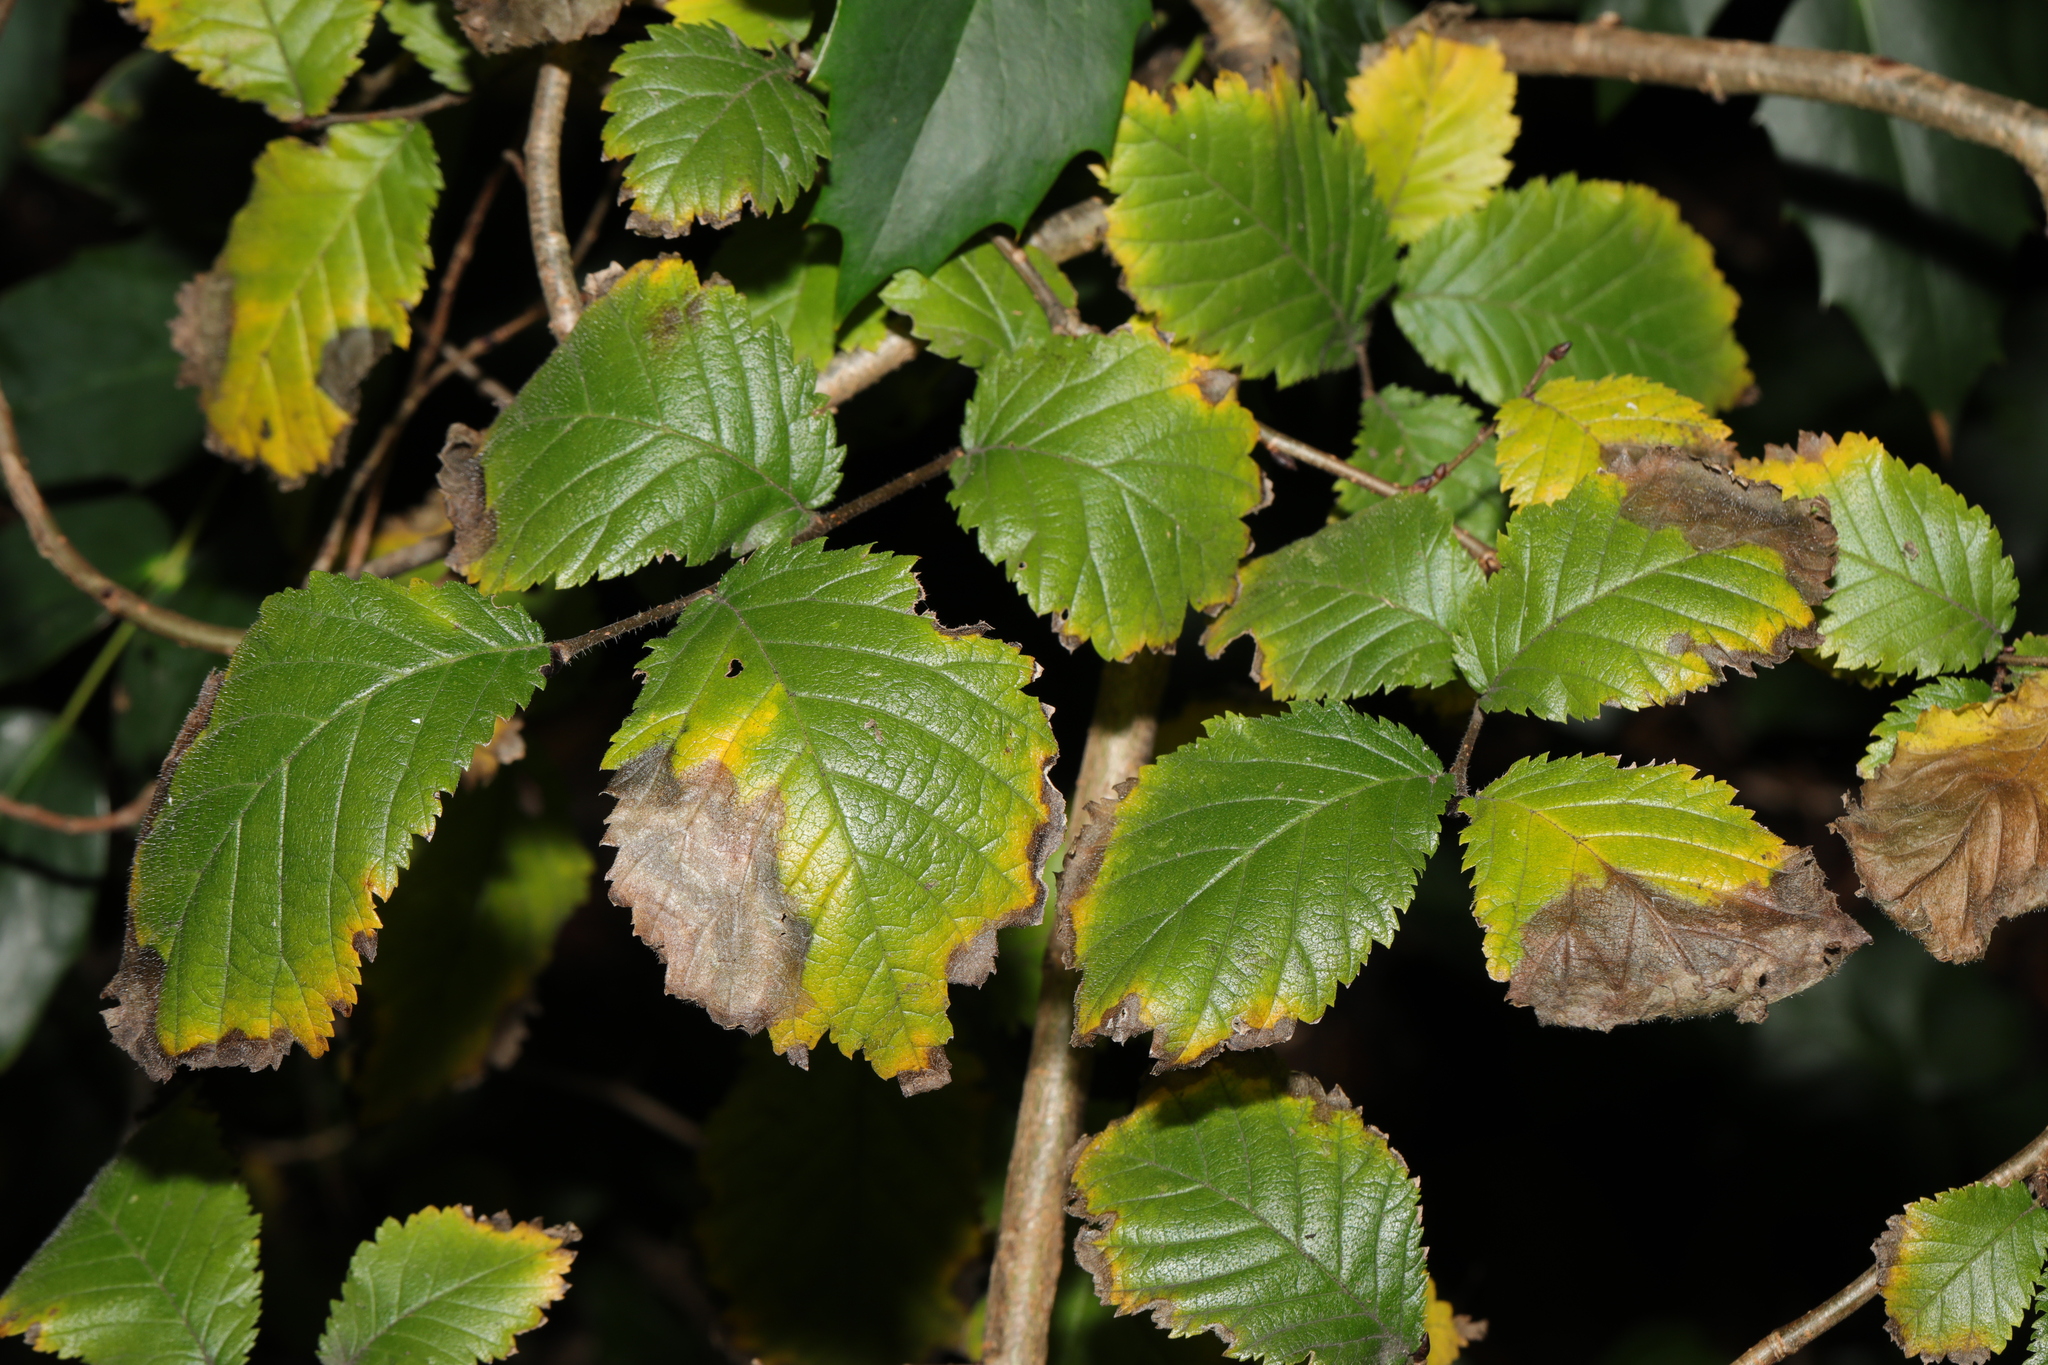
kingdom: Plantae
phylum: Tracheophyta
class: Magnoliopsida
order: Rosales
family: Ulmaceae
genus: Ulmus
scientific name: Ulmus minor
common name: Small-leaved elm
